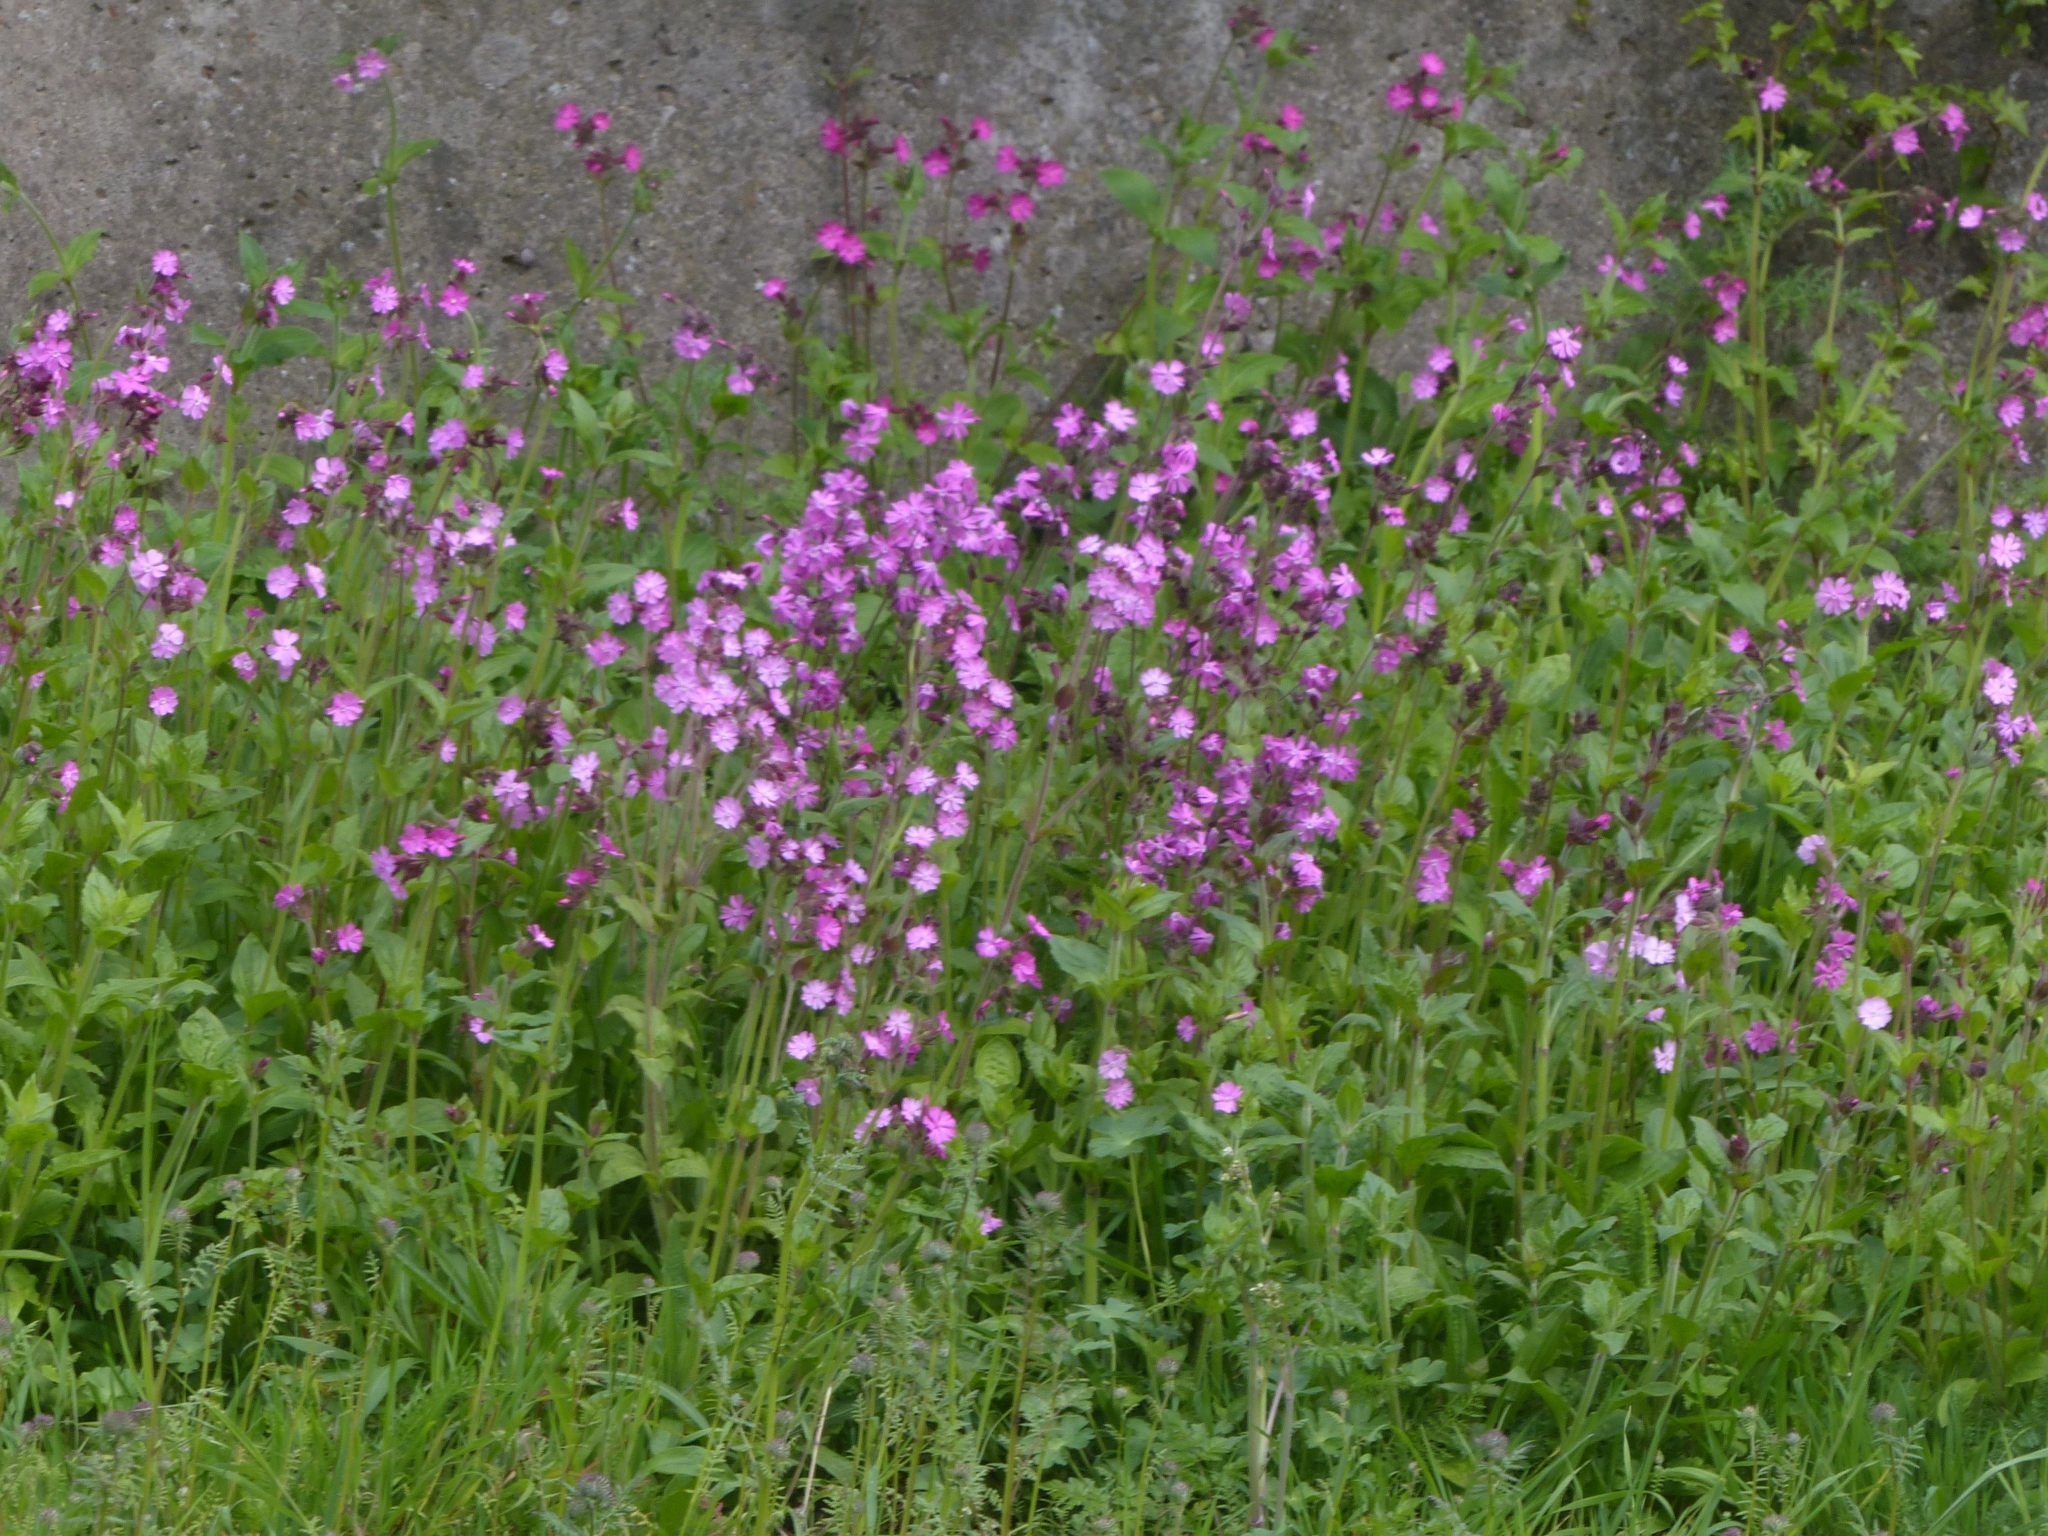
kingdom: Plantae
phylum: Tracheophyta
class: Magnoliopsida
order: Caryophyllales
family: Caryophyllaceae
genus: Silene
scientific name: Silene dioica
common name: Red campion
